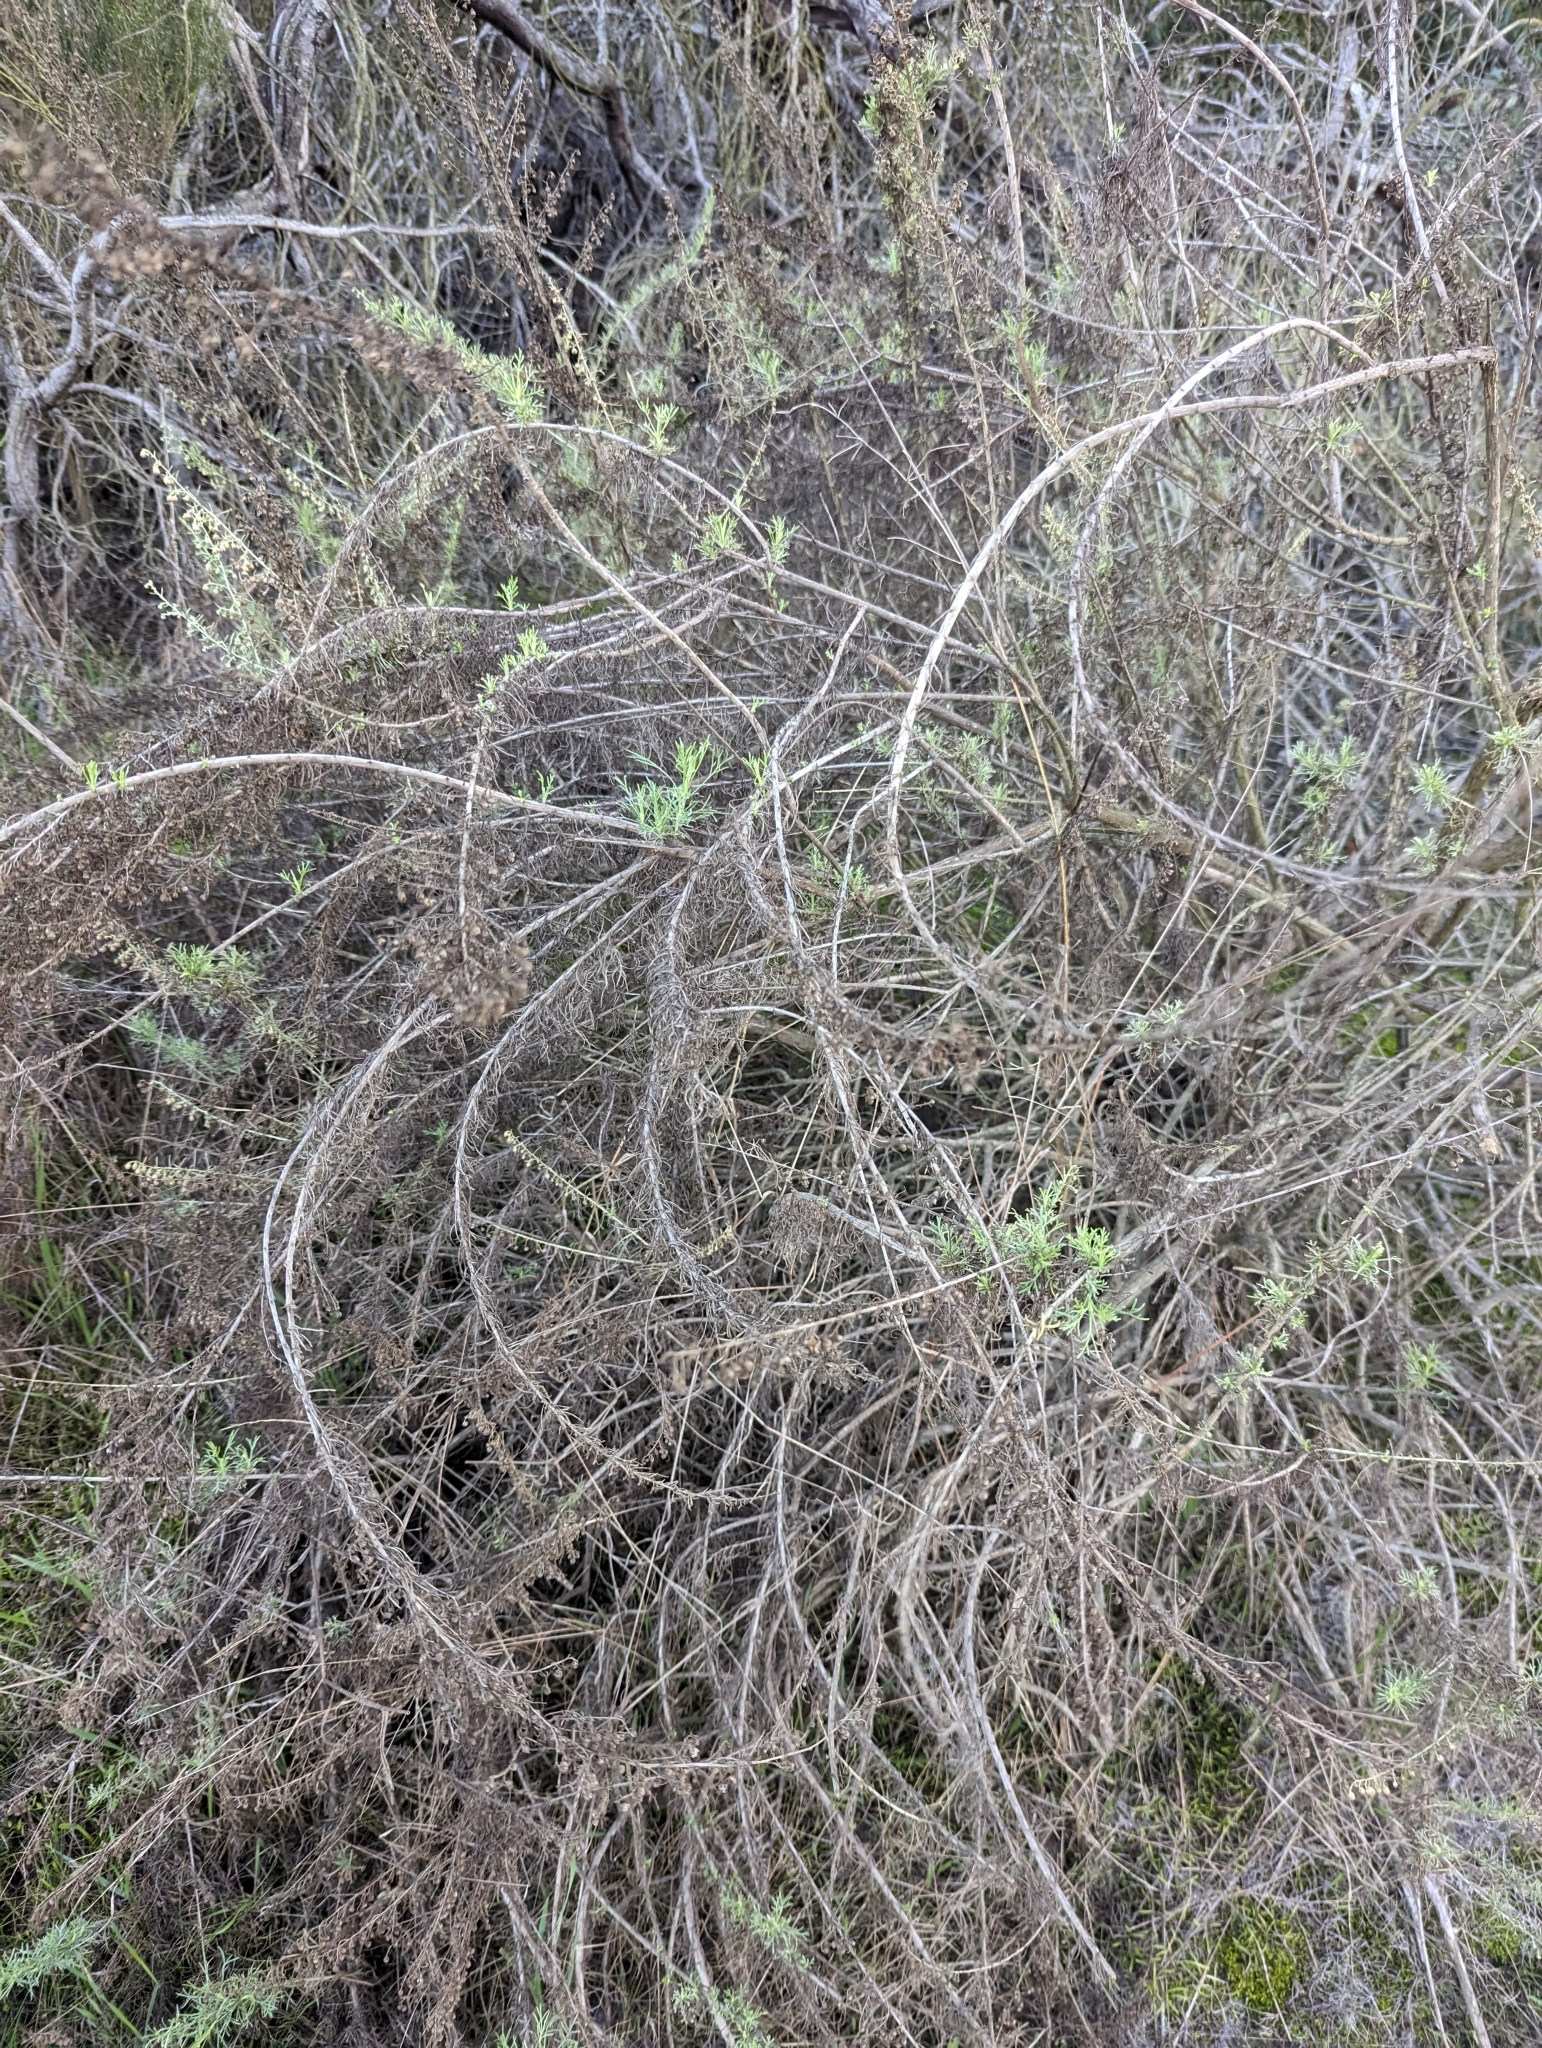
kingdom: Plantae
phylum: Tracheophyta
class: Magnoliopsida
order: Asterales
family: Asteraceae
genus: Artemisia
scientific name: Artemisia californica
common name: California sagebrush
